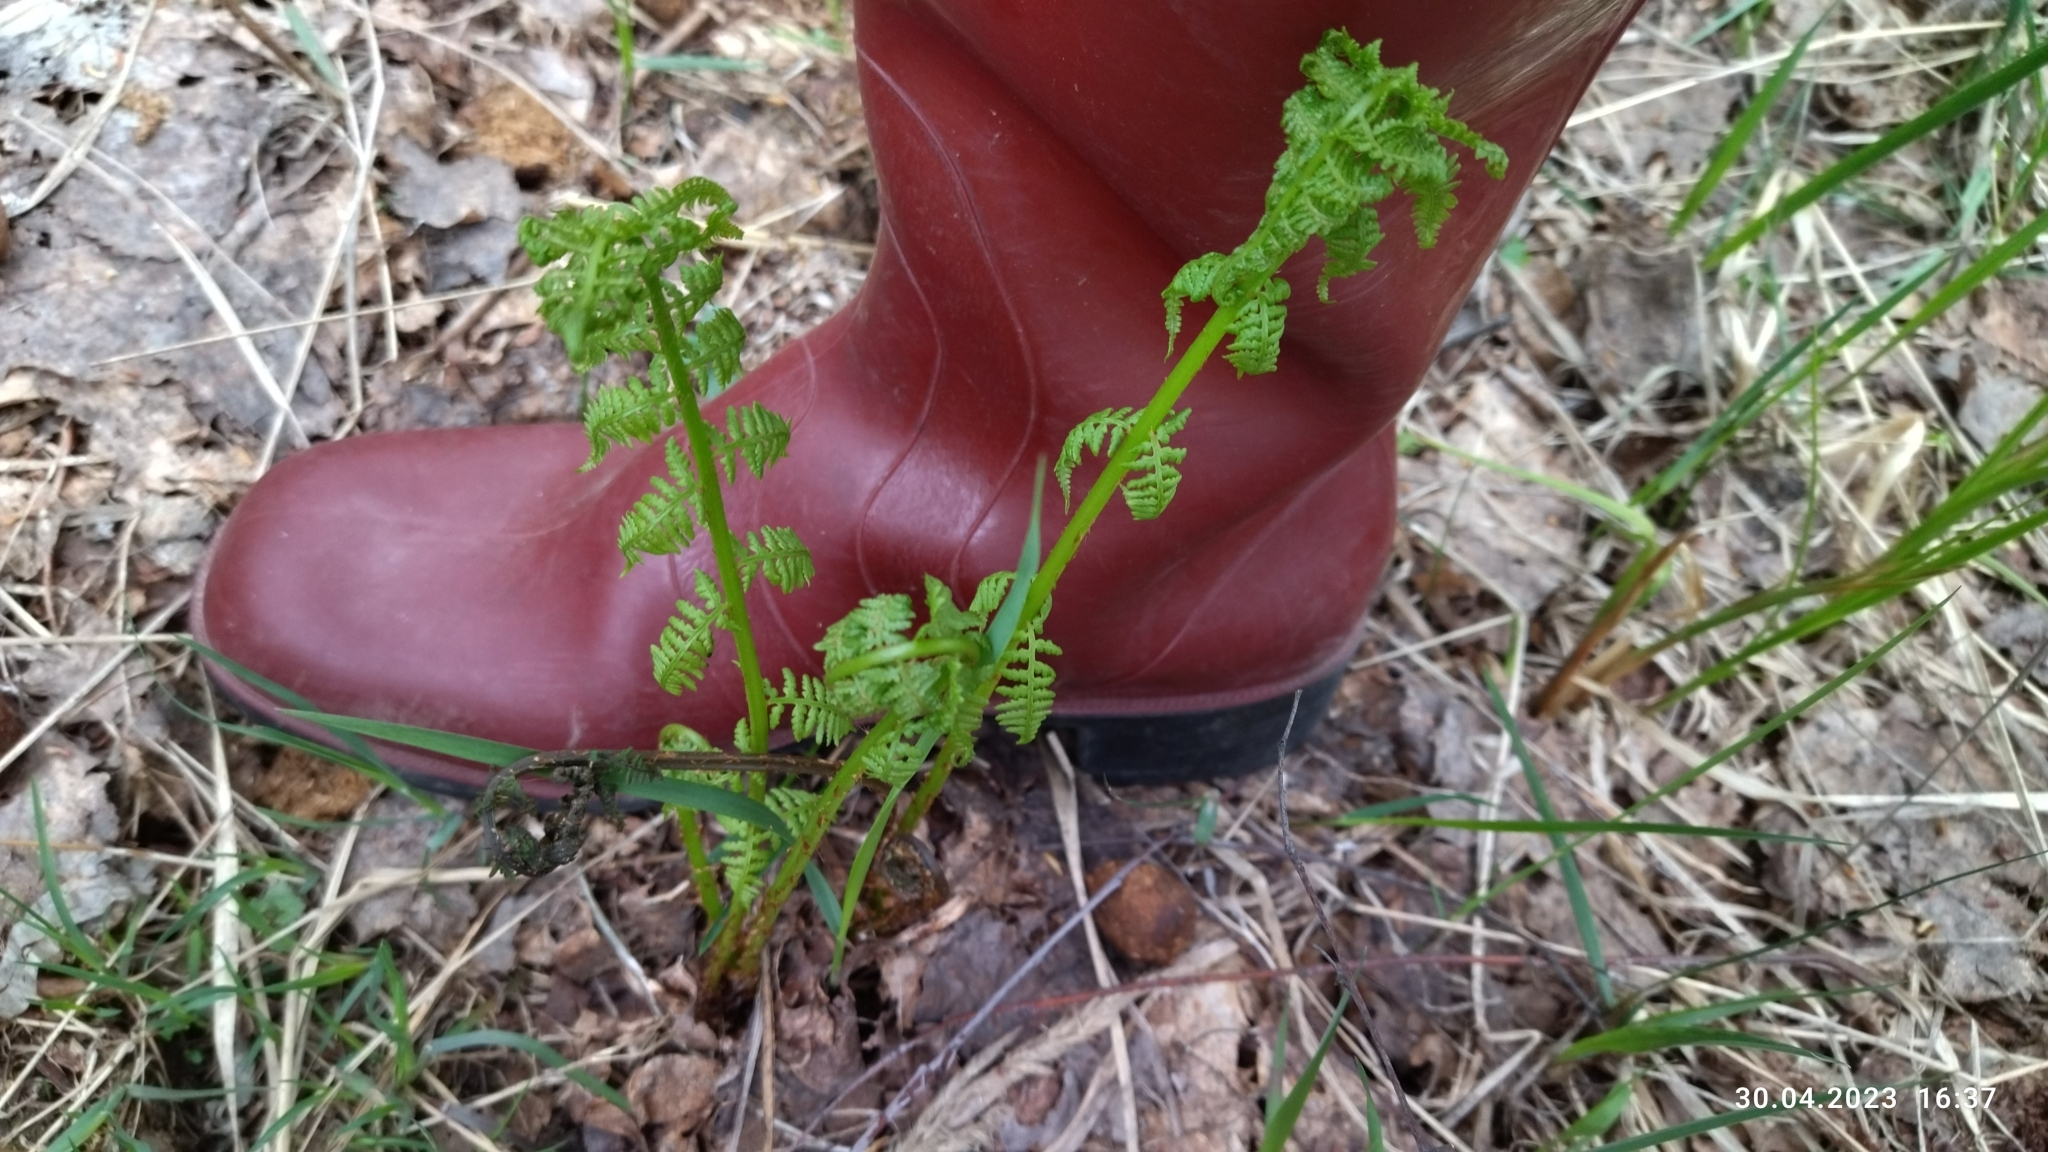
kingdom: Plantae
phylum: Tracheophyta
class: Polypodiopsida
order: Polypodiales
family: Athyriaceae
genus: Athyrium
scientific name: Athyrium filix-femina
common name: Lady fern
